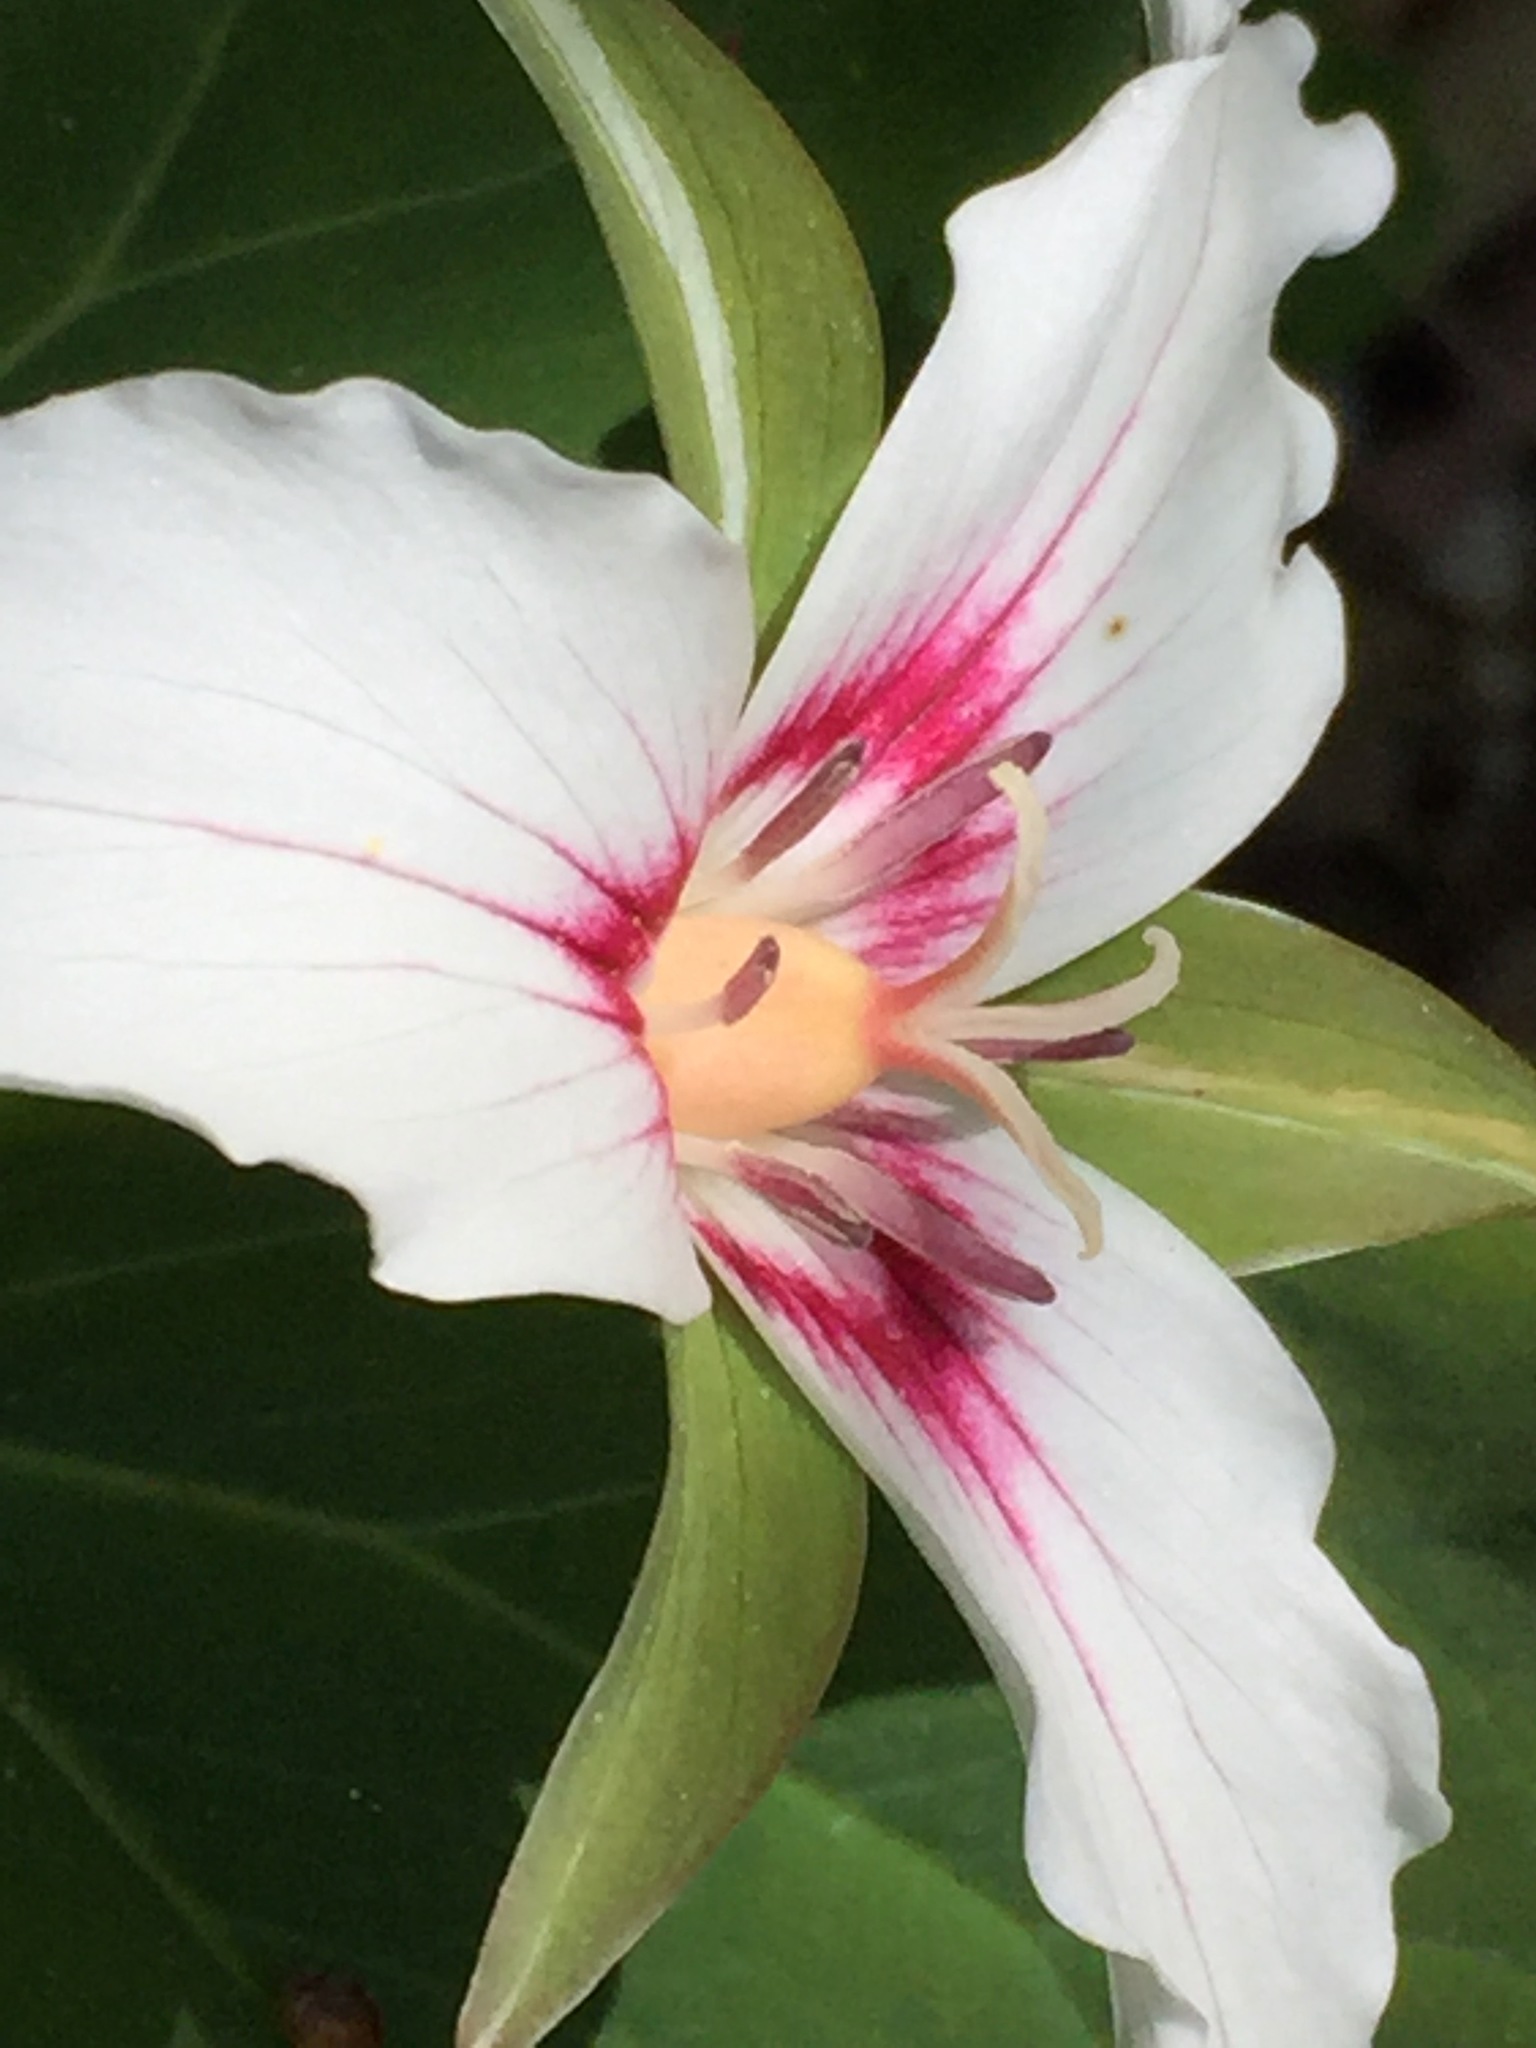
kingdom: Plantae
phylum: Tracheophyta
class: Liliopsida
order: Liliales
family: Melanthiaceae
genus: Trillium
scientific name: Trillium undulatum
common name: Paint trillium
